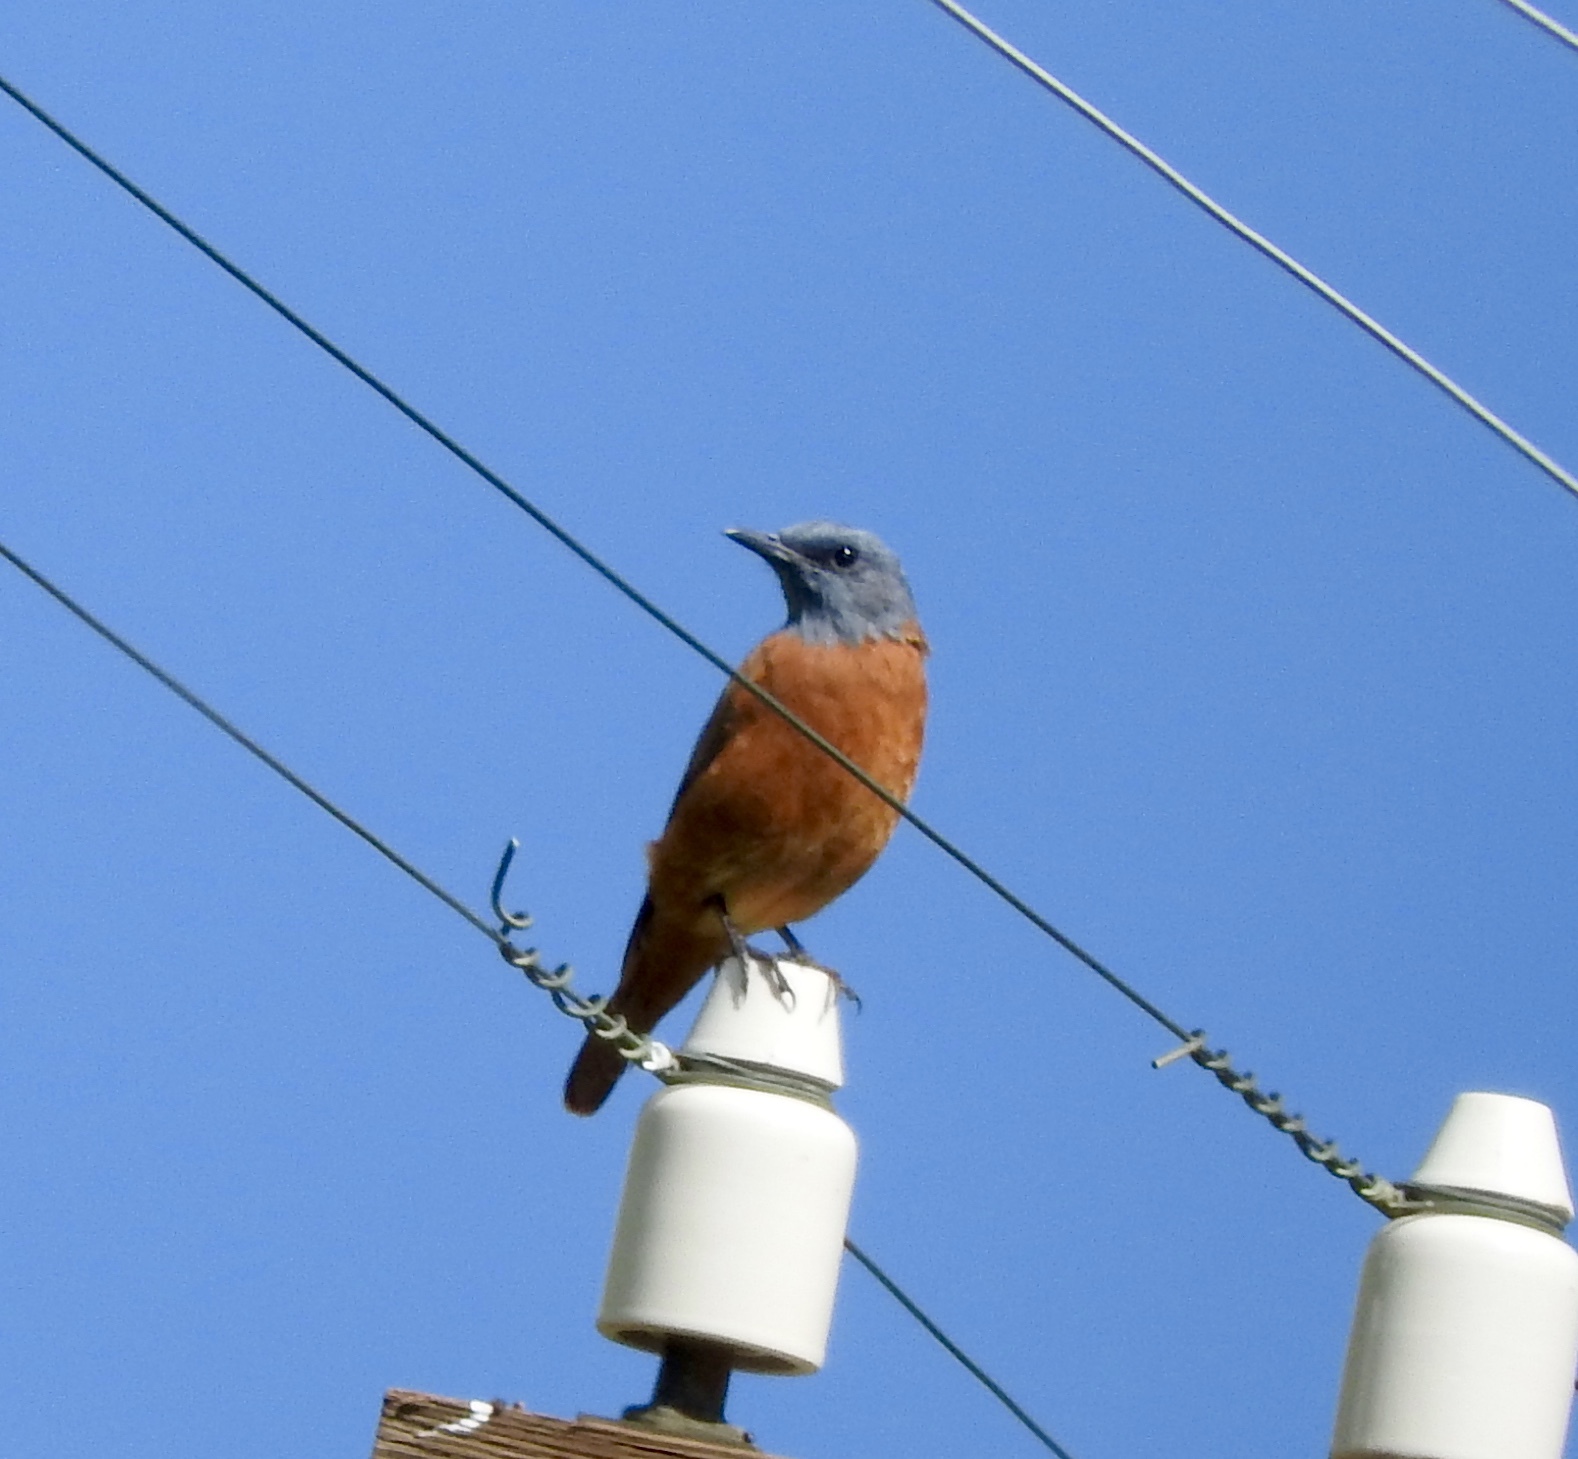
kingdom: Animalia
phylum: Chordata
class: Aves
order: Passeriformes
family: Muscicapidae
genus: Monticola
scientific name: Monticola rupestris
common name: Cape rock thrush
